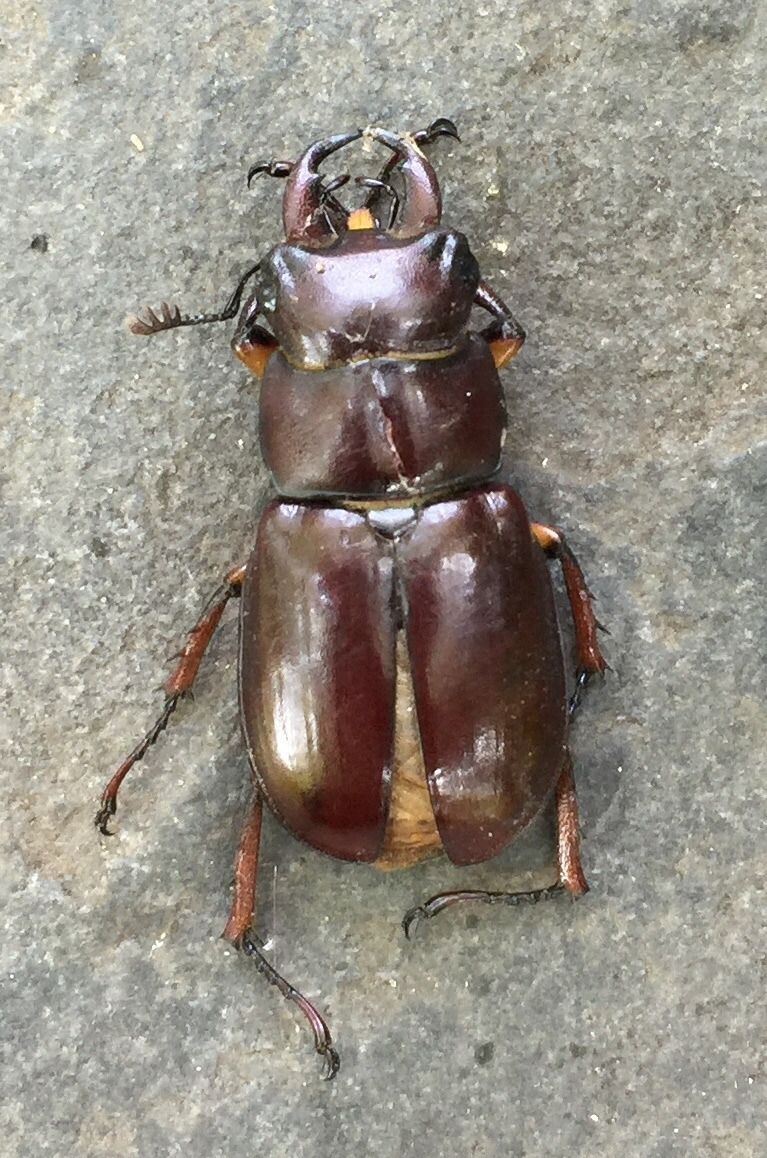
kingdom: Animalia
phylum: Arthropoda
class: Insecta
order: Coleoptera
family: Lucanidae
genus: Lucanus
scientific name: Lucanus capreolus
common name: Stag beetle
